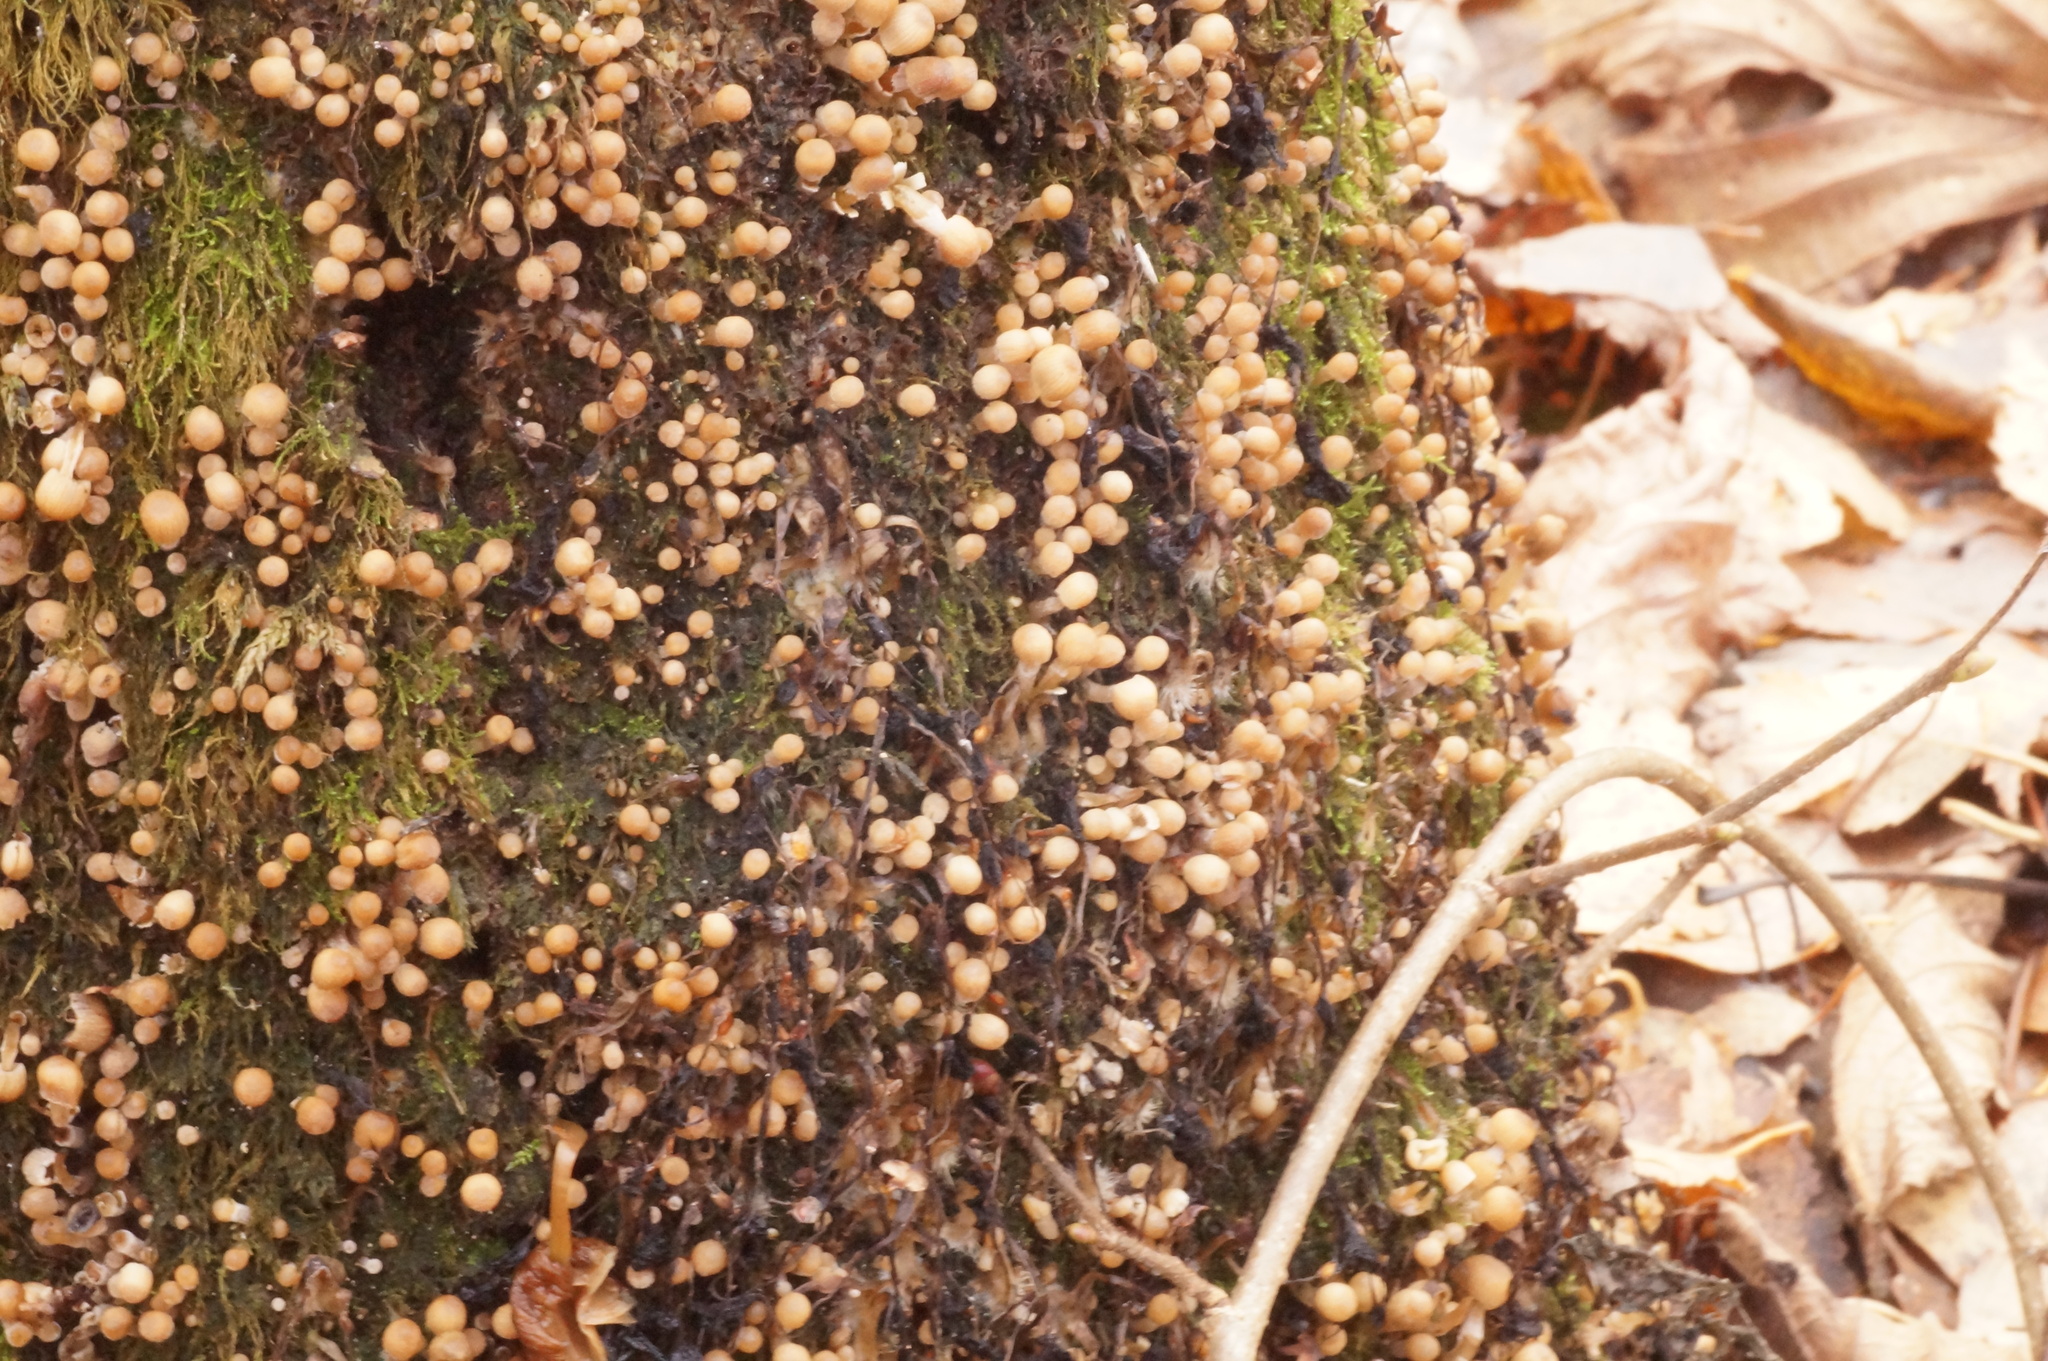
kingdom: Fungi
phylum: Basidiomycota
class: Agaricomycetes
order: Agaricales
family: Psathyrellaceae
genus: Coprinellus
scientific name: Coprinellus disseminatus
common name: Fairies' bonnets
